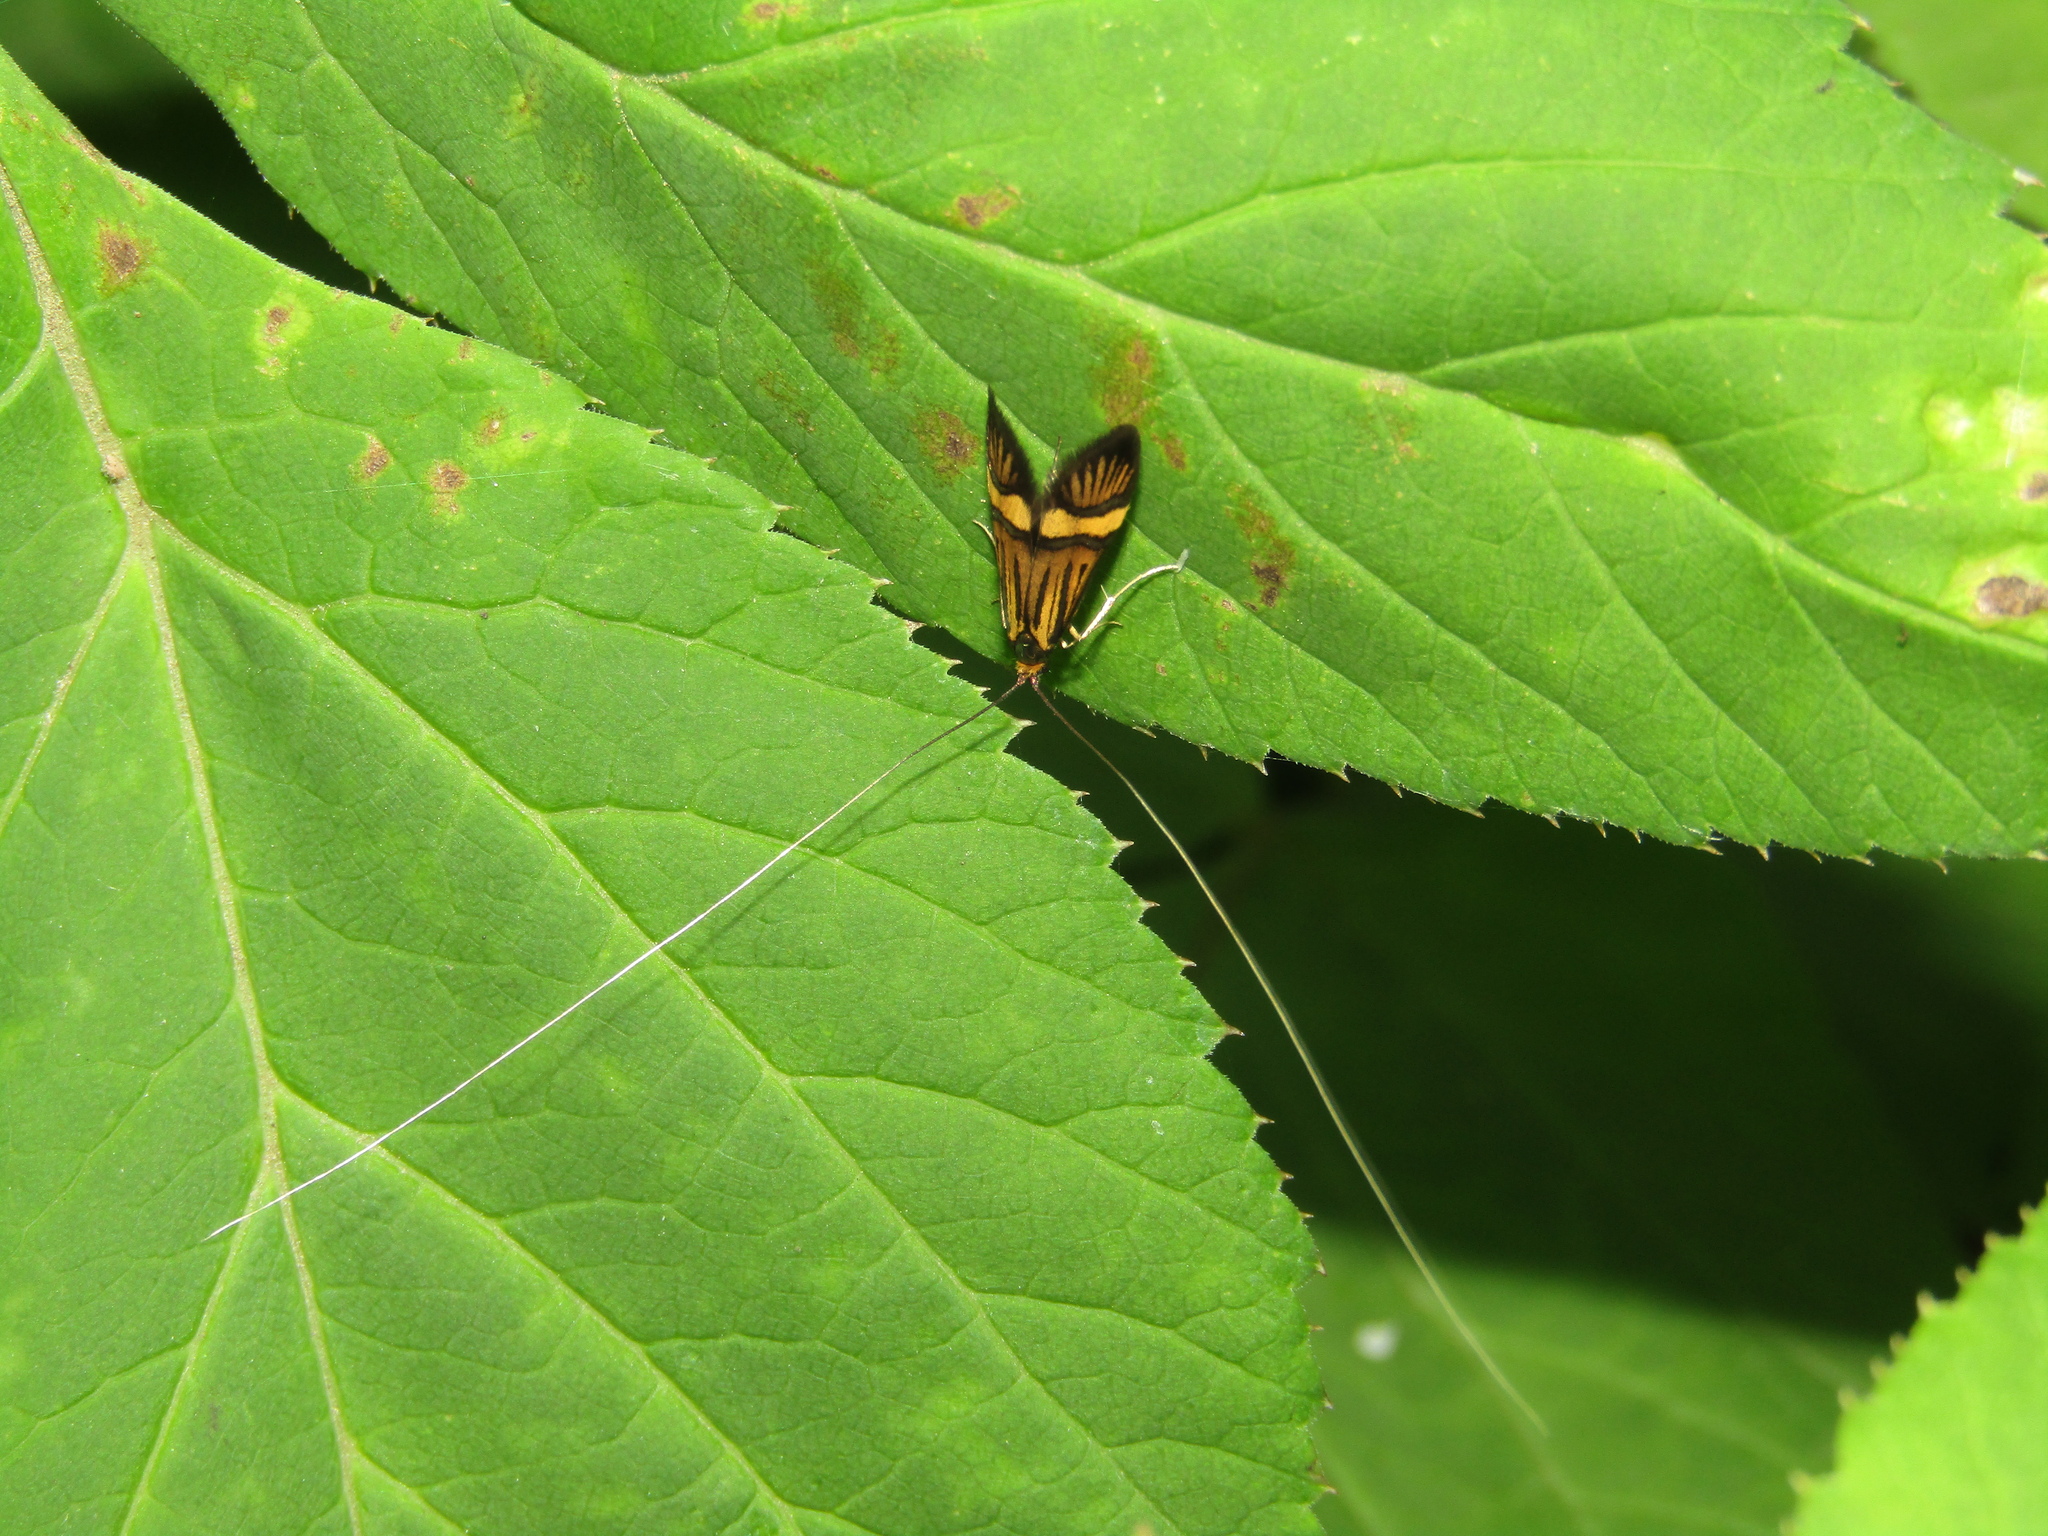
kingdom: Animalia
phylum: Arthropoda
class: Insecta
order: Lepidoptera
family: Adelidae
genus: Nemophora
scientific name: Nemophora degeerella
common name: Yellow-barred long-horn
